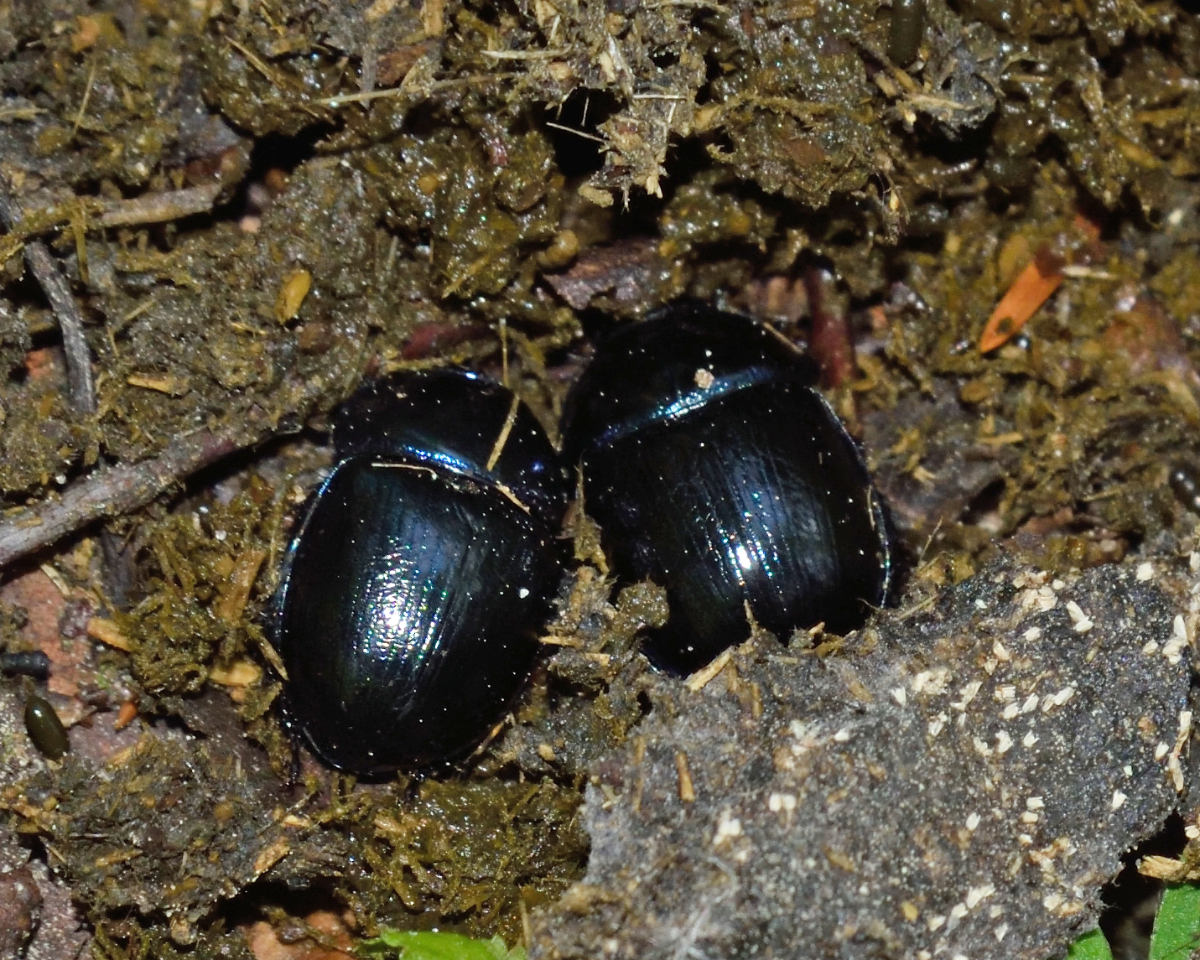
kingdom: Animalia
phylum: Arthropoda
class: Insecta
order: Coleoptera
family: Geotrupidae
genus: Anoplotrupes
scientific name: Anoplotrupes stercorosus
